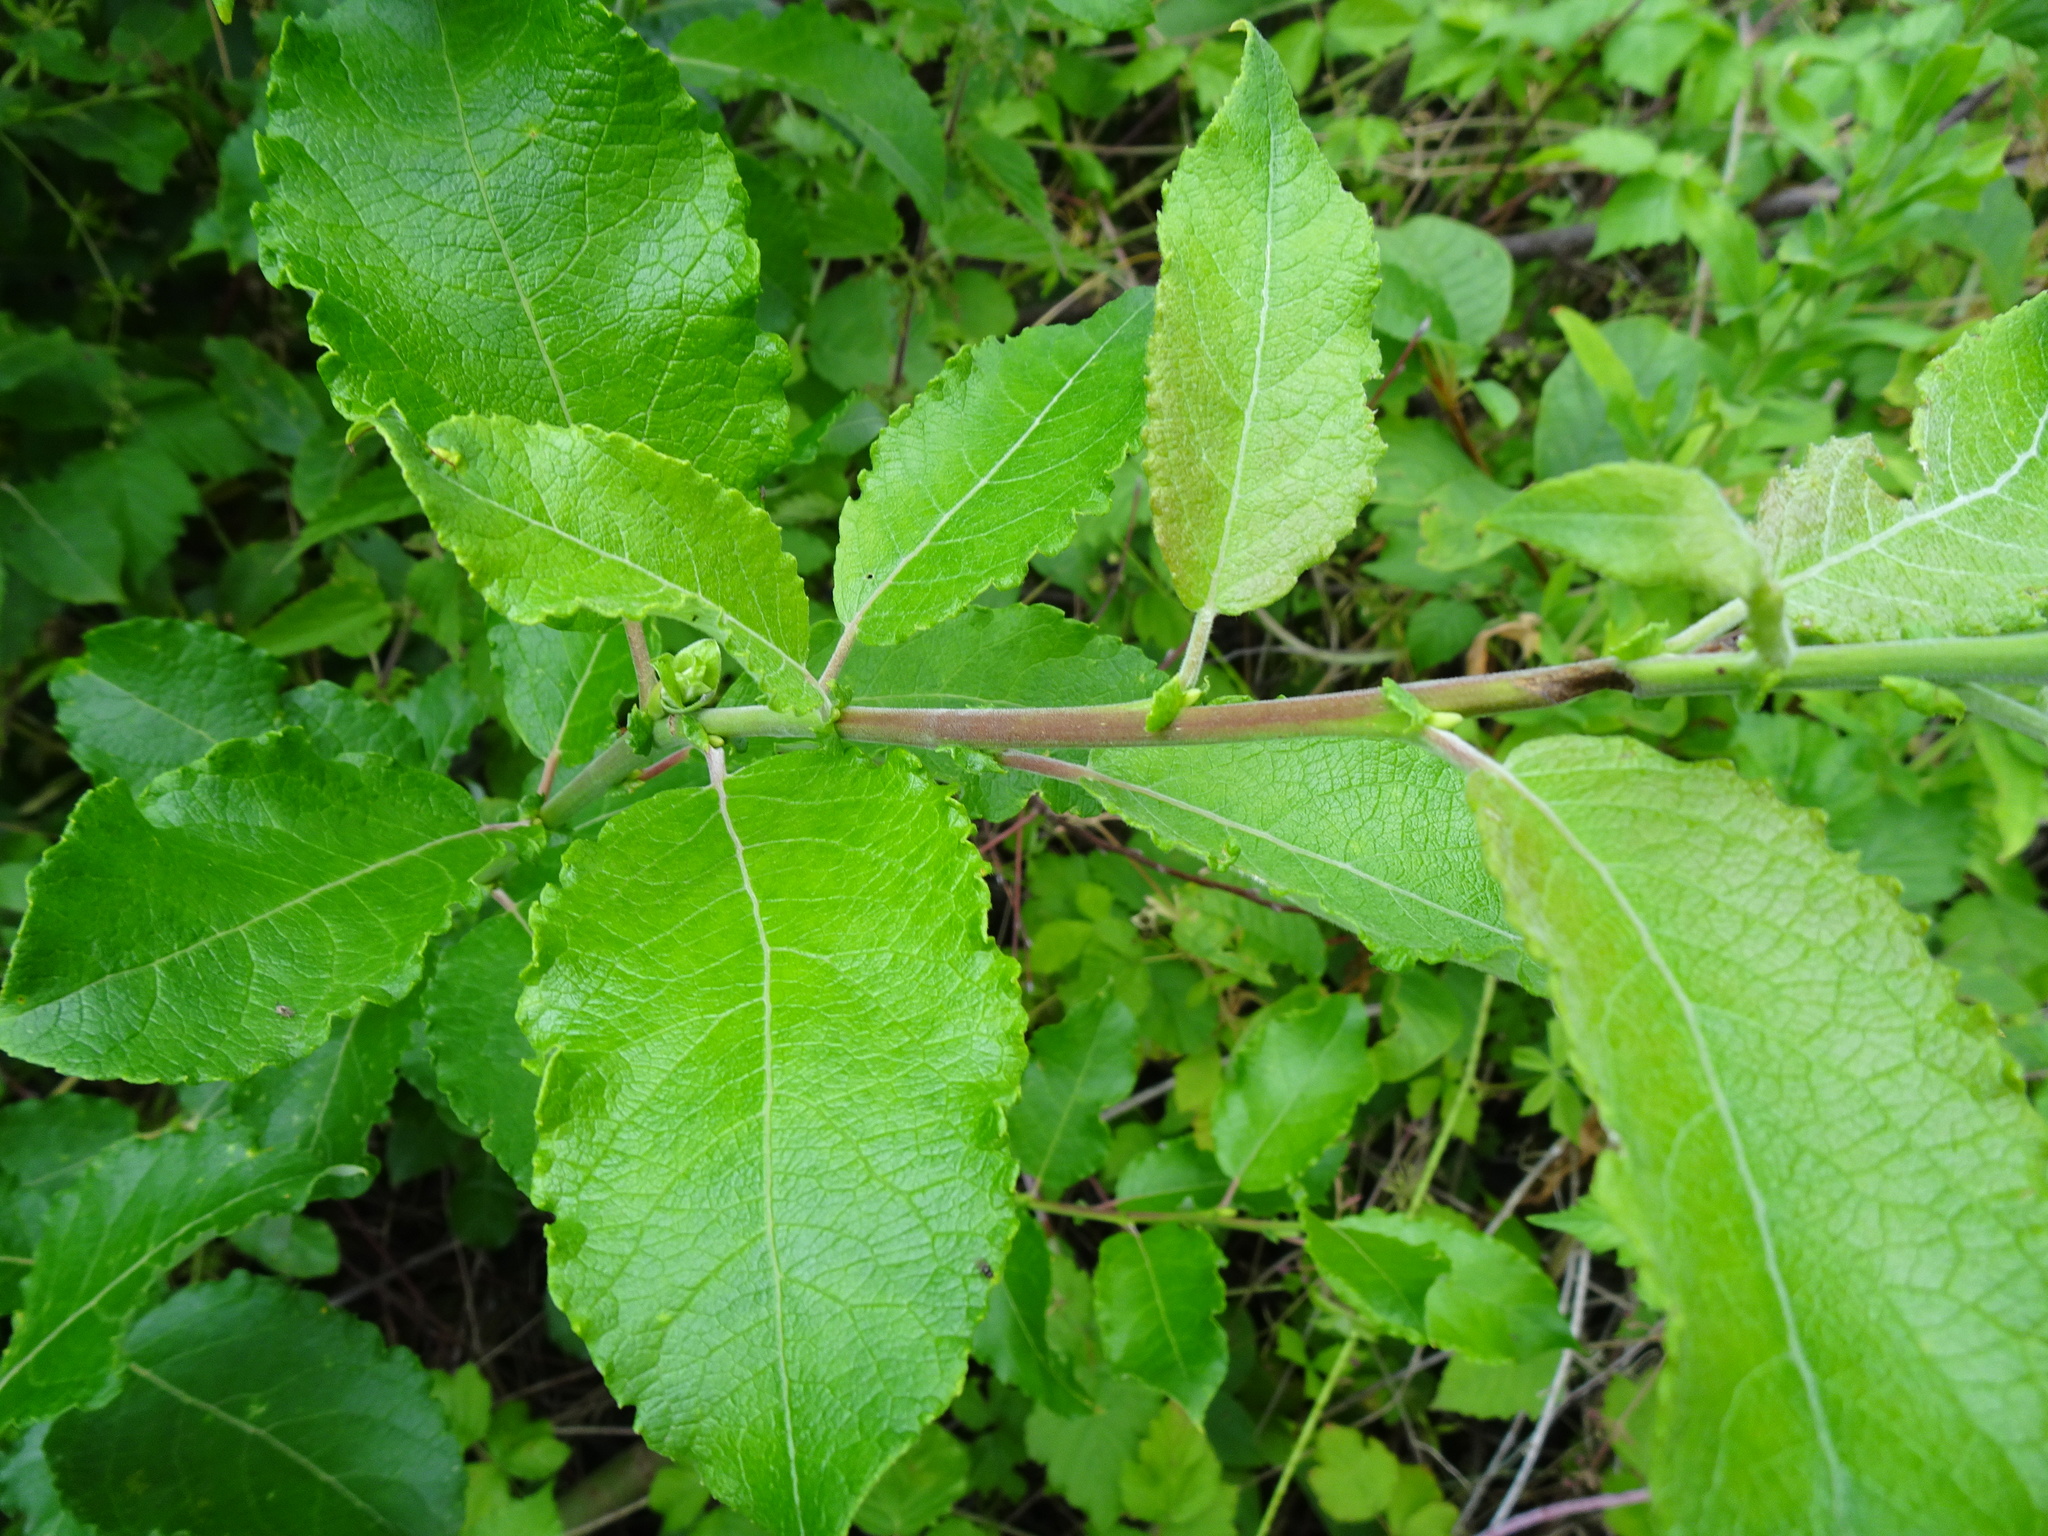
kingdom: Plantae
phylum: Tracheophyta
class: Magnoliopsida
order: Malpighiales
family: Salicaceae
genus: Salix
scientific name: Salix caprea
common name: Goat willow
